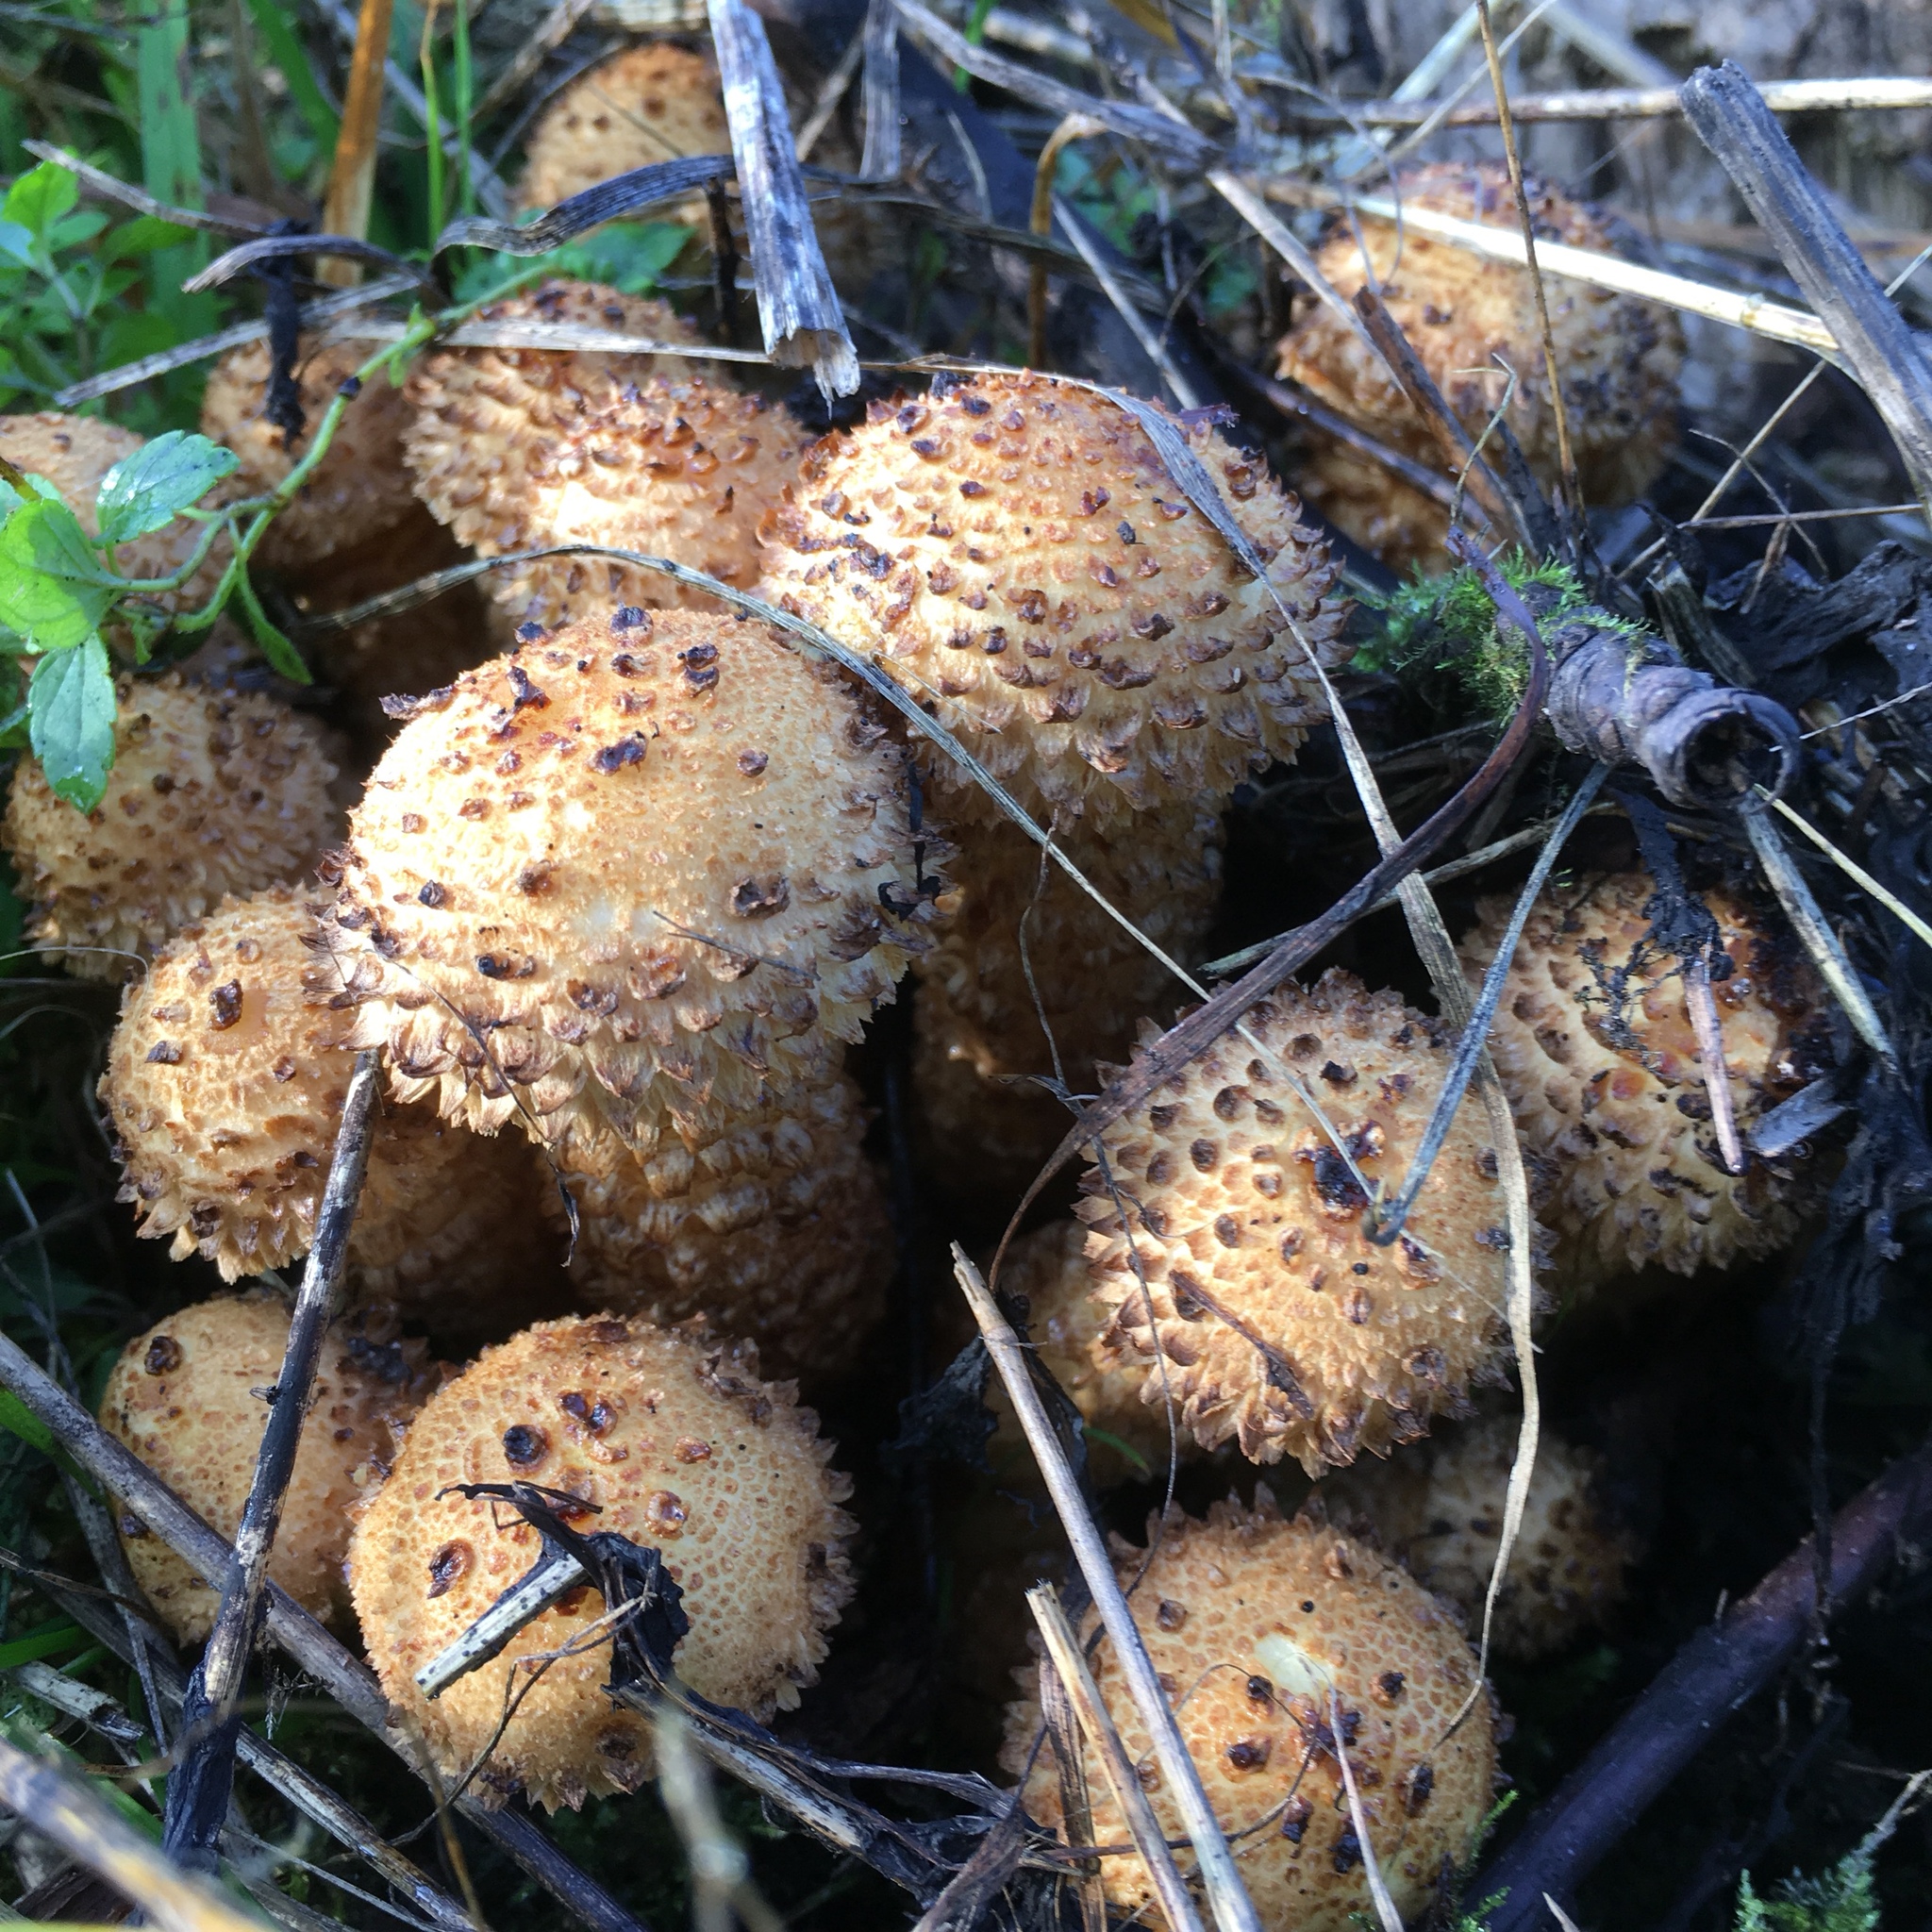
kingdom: Fungi
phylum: Basidiomycota
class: Agaricomycetes
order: Agaricales
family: Strophariaceae
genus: Pholiota
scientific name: Pholiota squarrosa
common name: Shaggy pholiota
